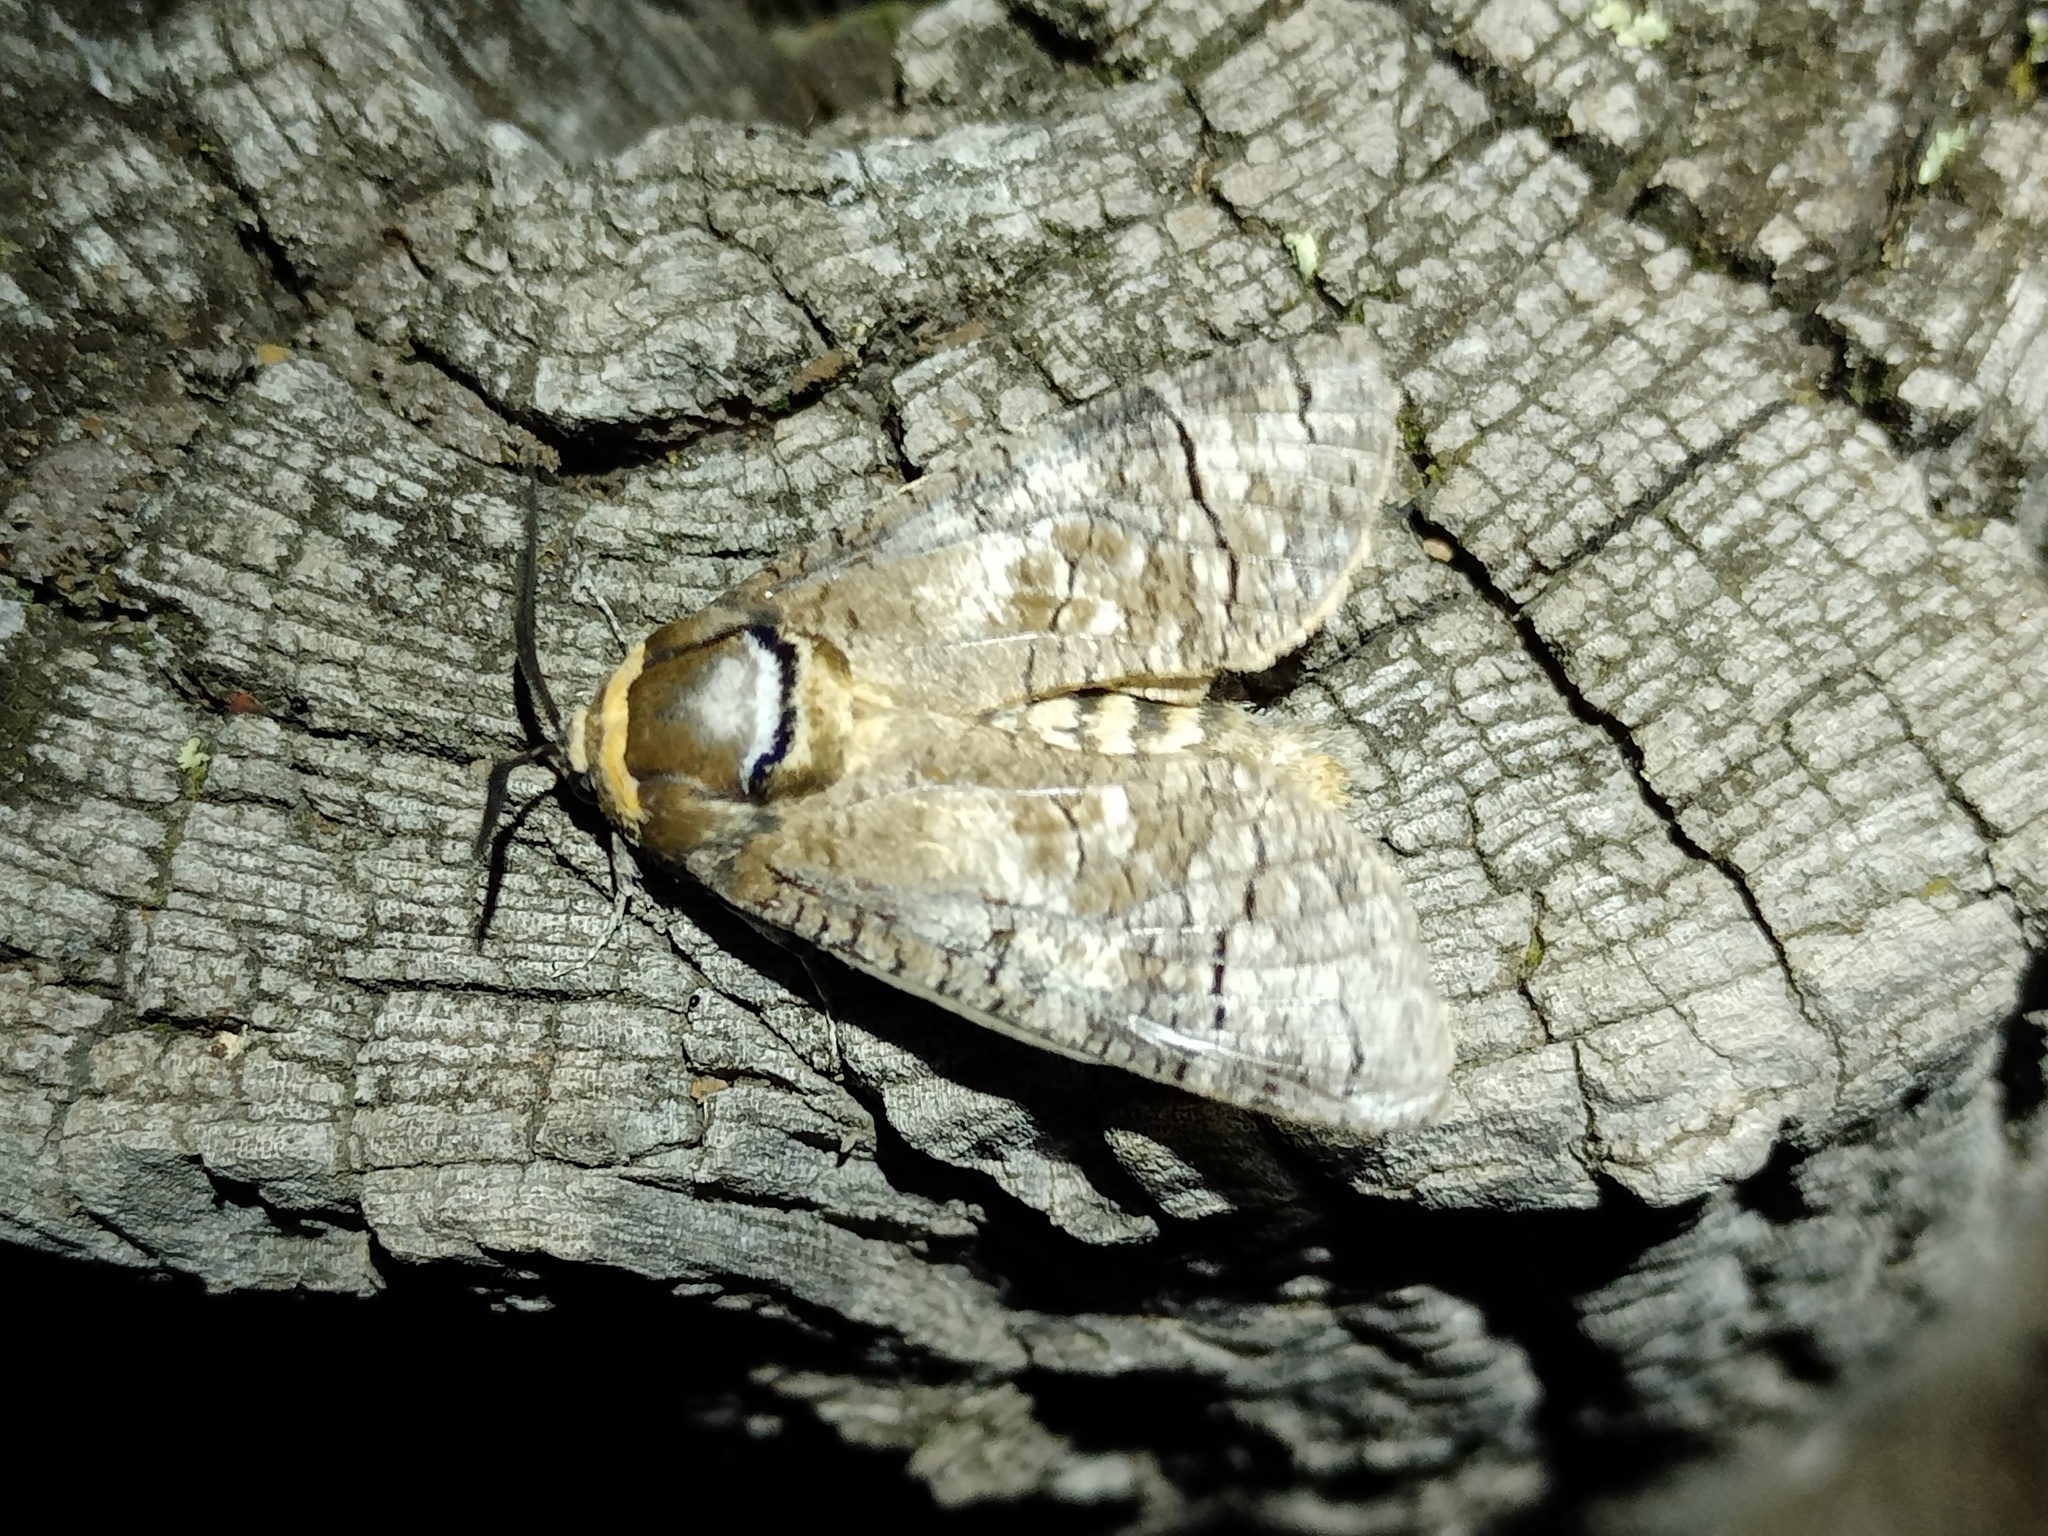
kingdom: Animalia
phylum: Arthropoda
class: Insecta
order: Lepidoptera
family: Cossidae
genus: Cossus
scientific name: Cossus cossus
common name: Goat moth
